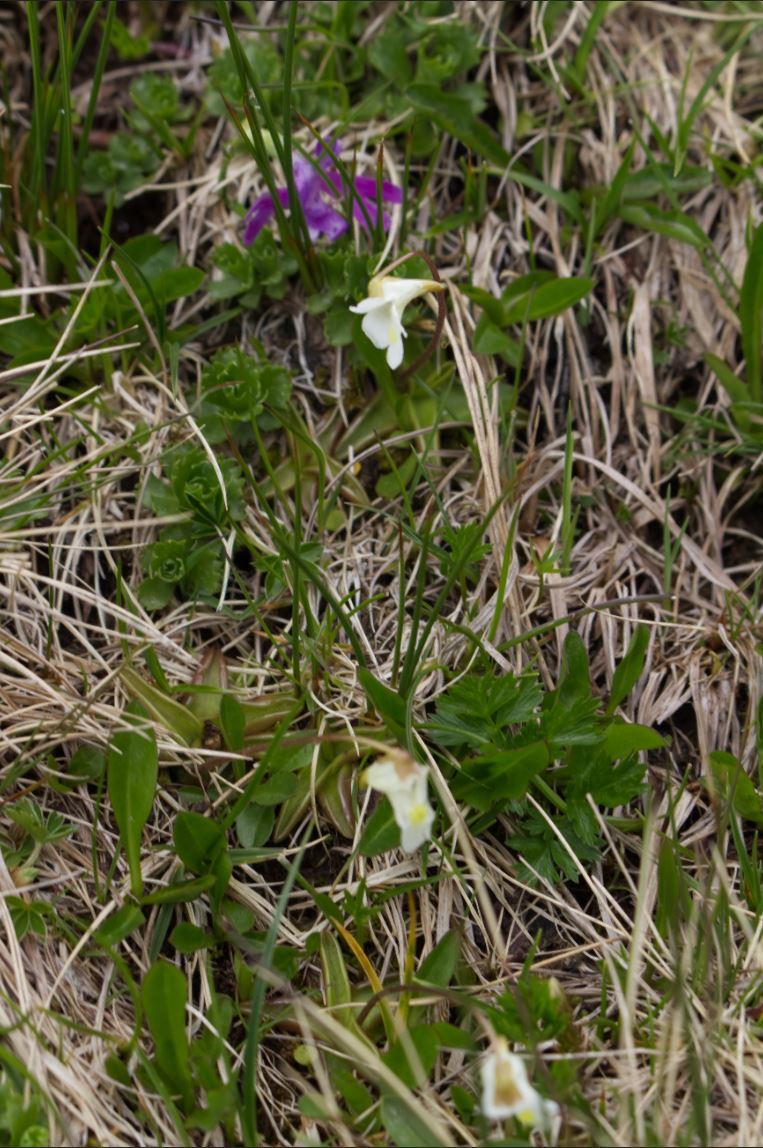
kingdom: Plantae
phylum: Tracheophyta
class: Magnoliopsida
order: Lamiales
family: Lentibulariaceae
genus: Pinguicula
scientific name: Pinguicula alpina
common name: Alpine butterwort
